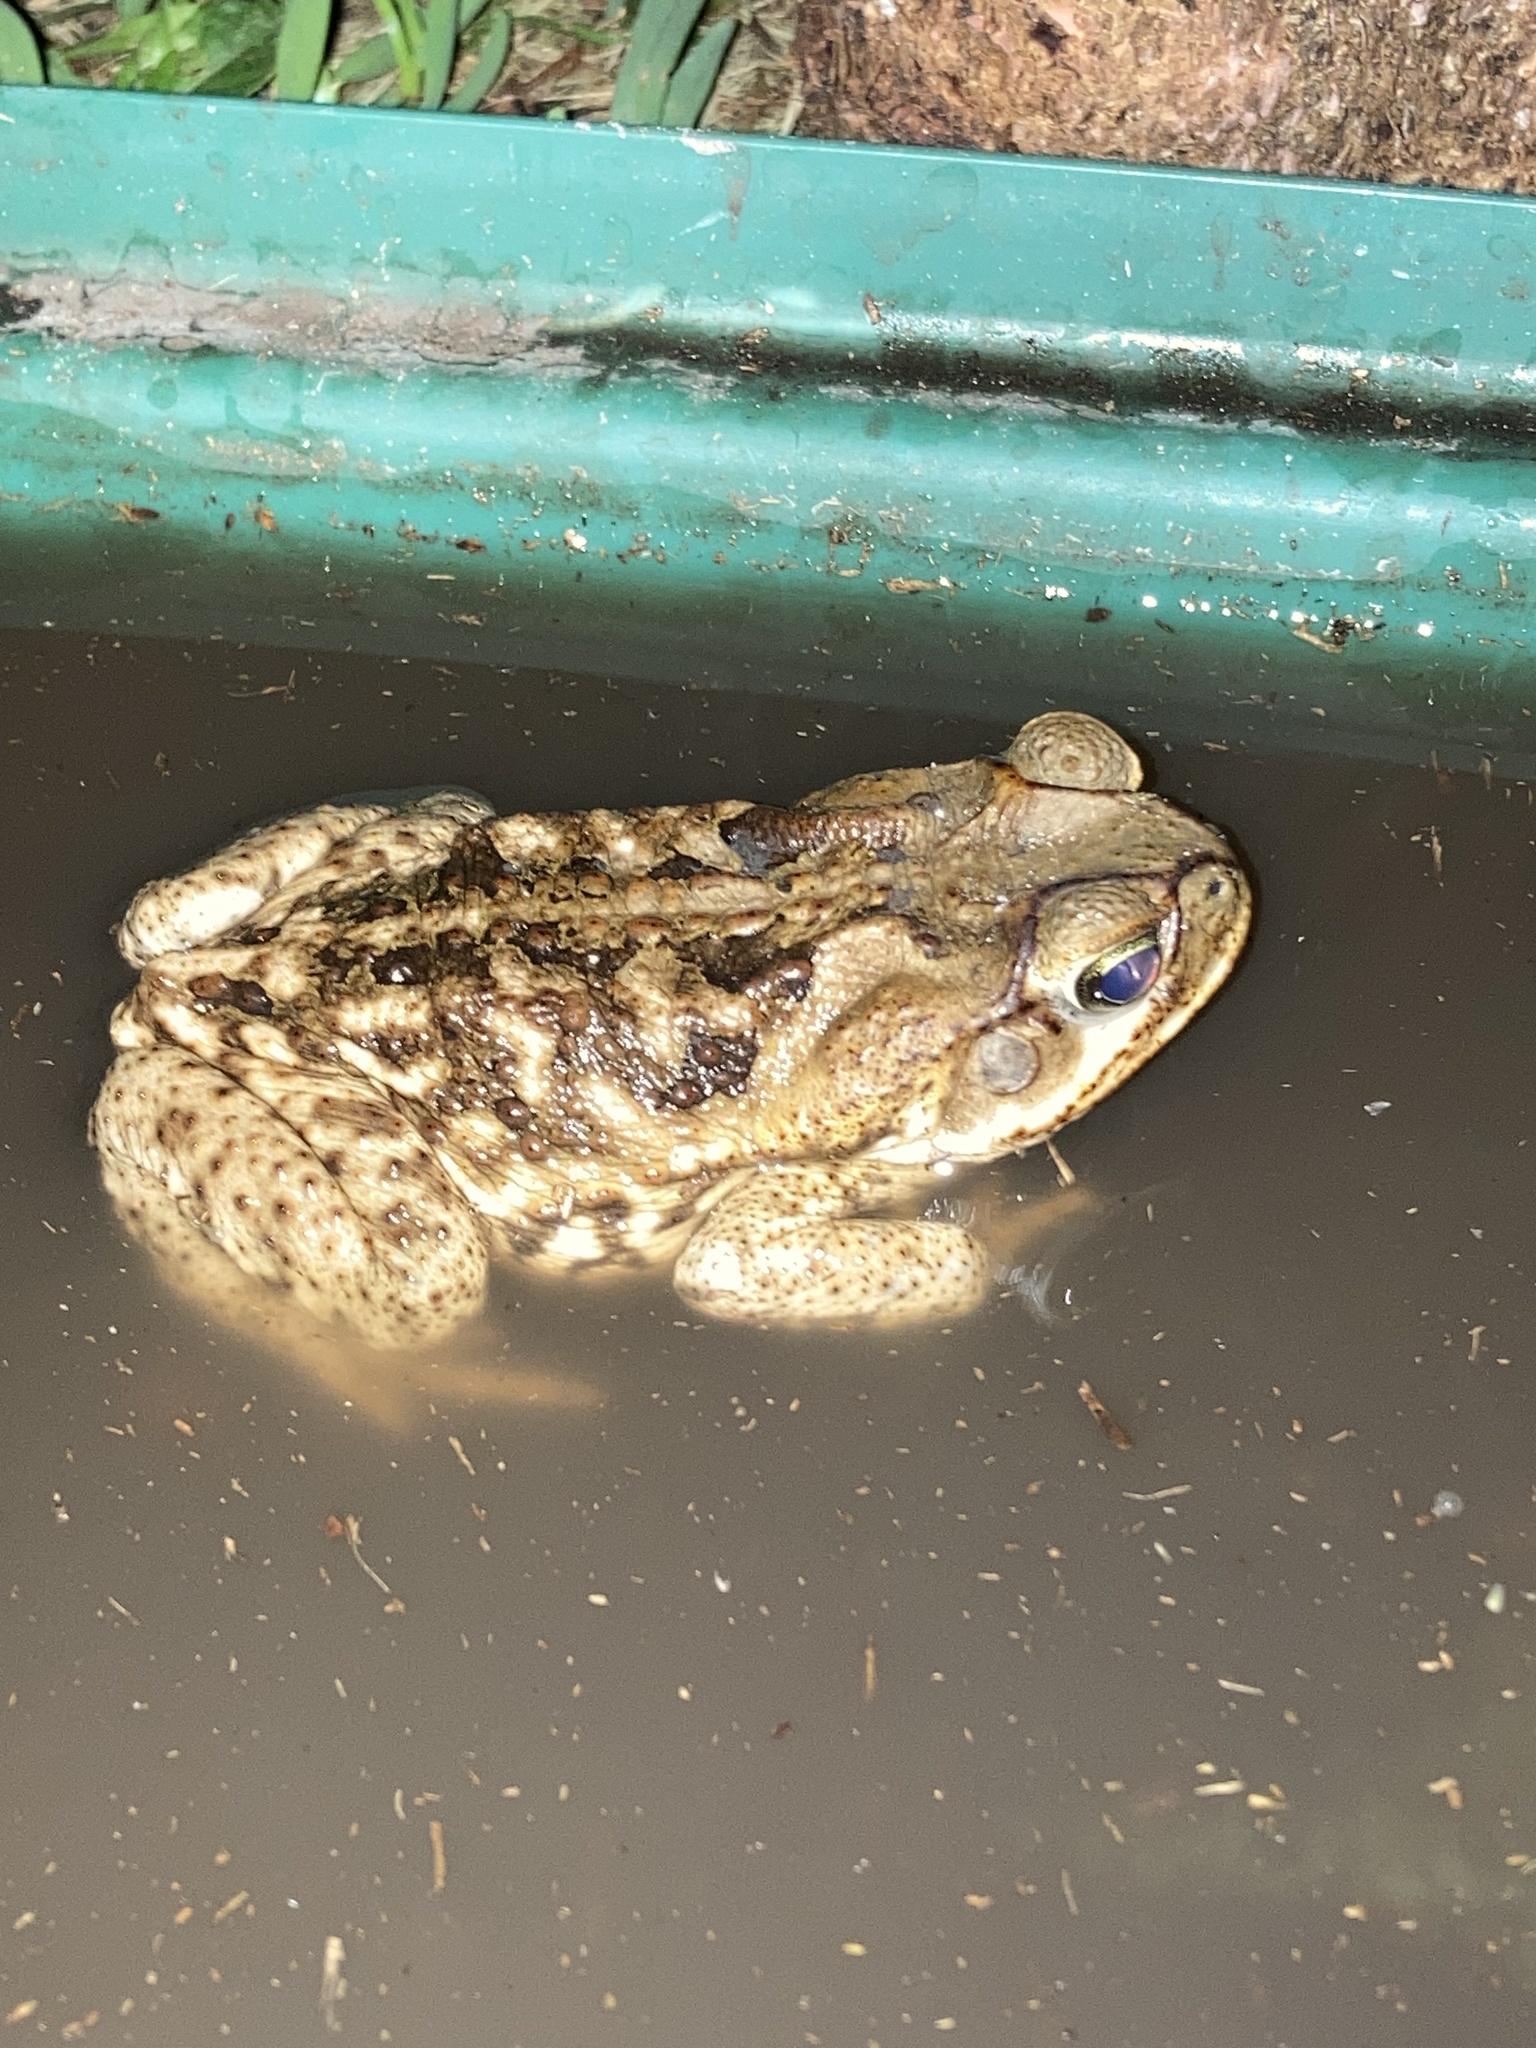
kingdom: Animalia
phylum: Chordata
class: Amphibia
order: Anura
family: Bufonidae
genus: Rhinella
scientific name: Rhinella marina
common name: Cane toad
